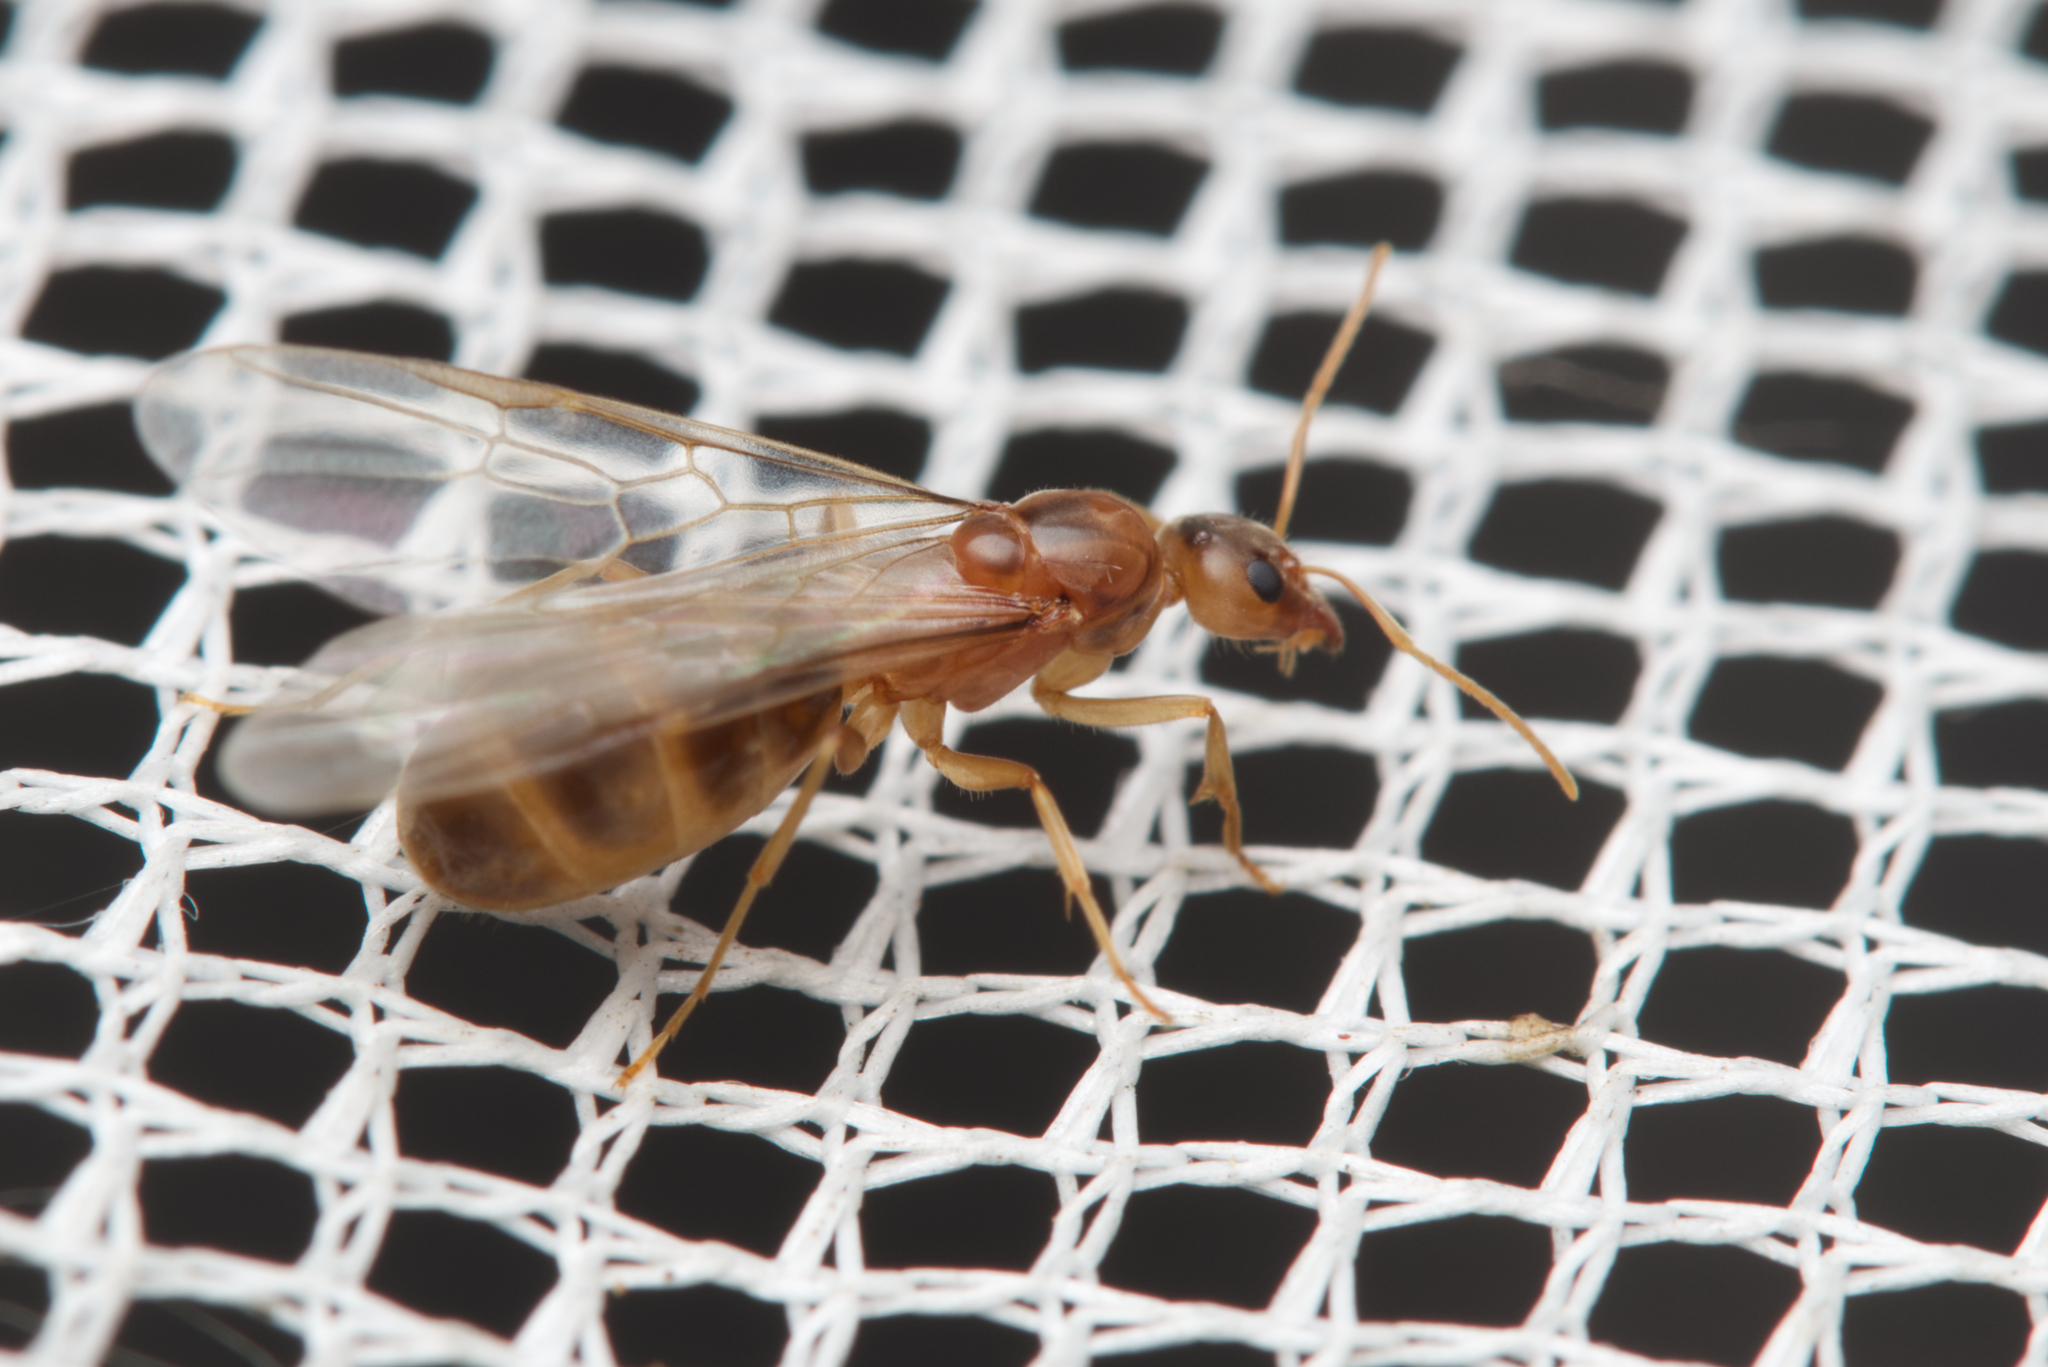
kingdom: Animalia
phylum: Arthropoda
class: Insecta
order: Hymenoptera
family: Formicidae
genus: Iridomyrmex
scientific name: Iridomyrmex pallidus
